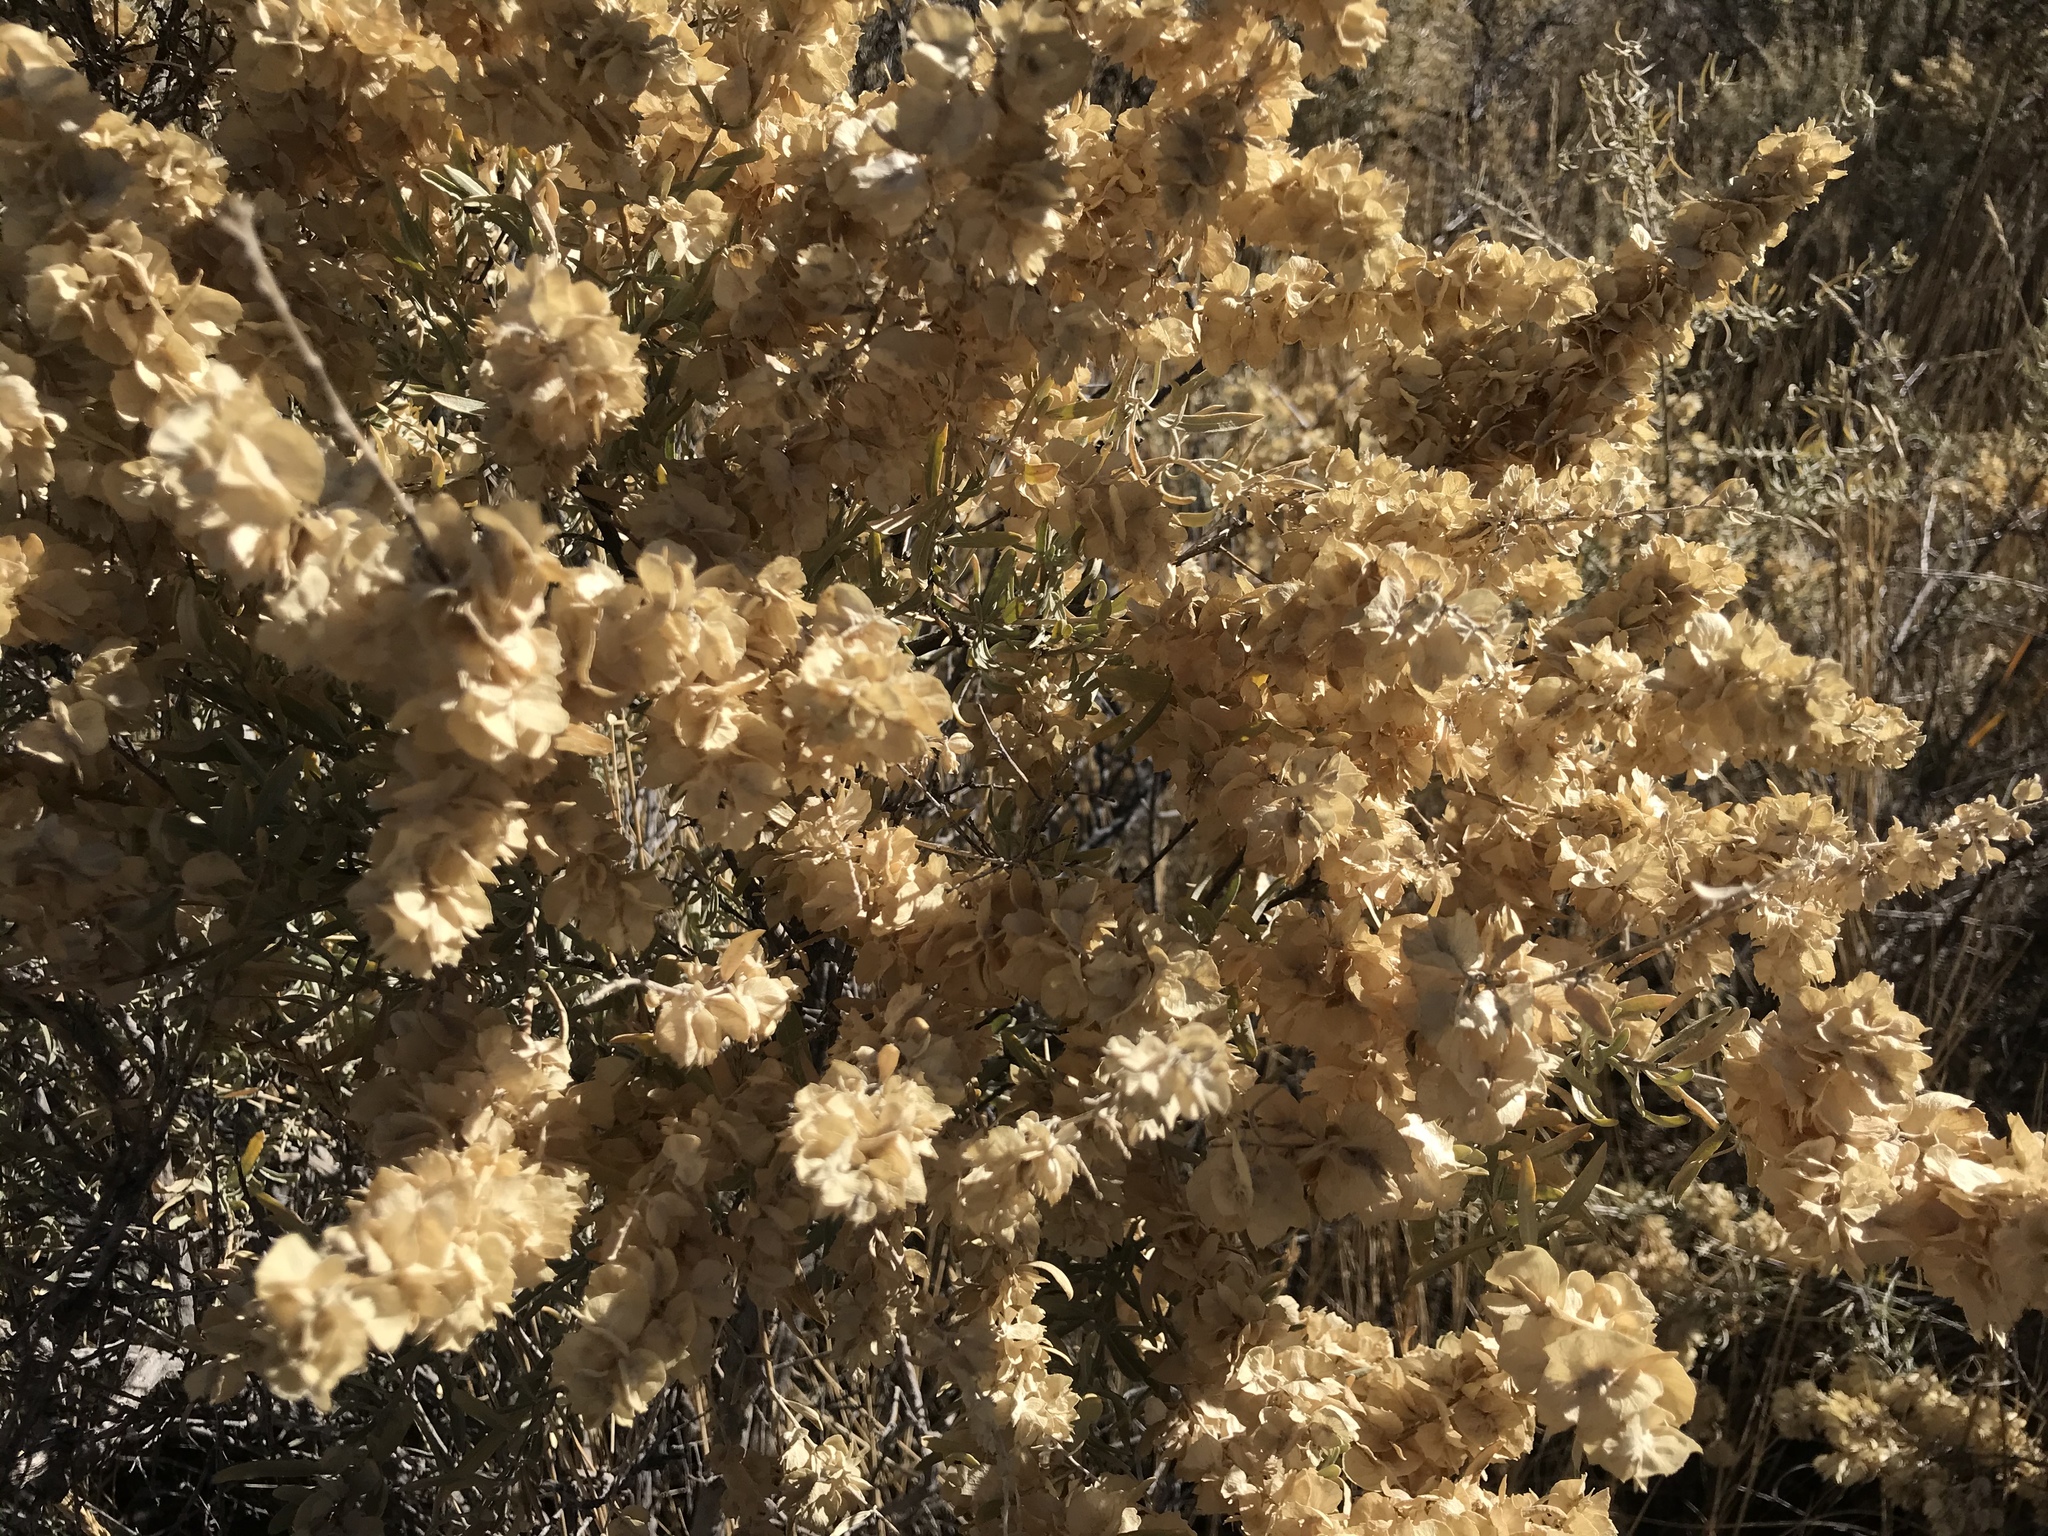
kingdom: Plantae
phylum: Tracheophyta
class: Magnoliopsida
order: Caryophyllales
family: Amaranthaceae
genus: Atriplex
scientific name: Atriplex canescens
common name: Four-wing saltbush
